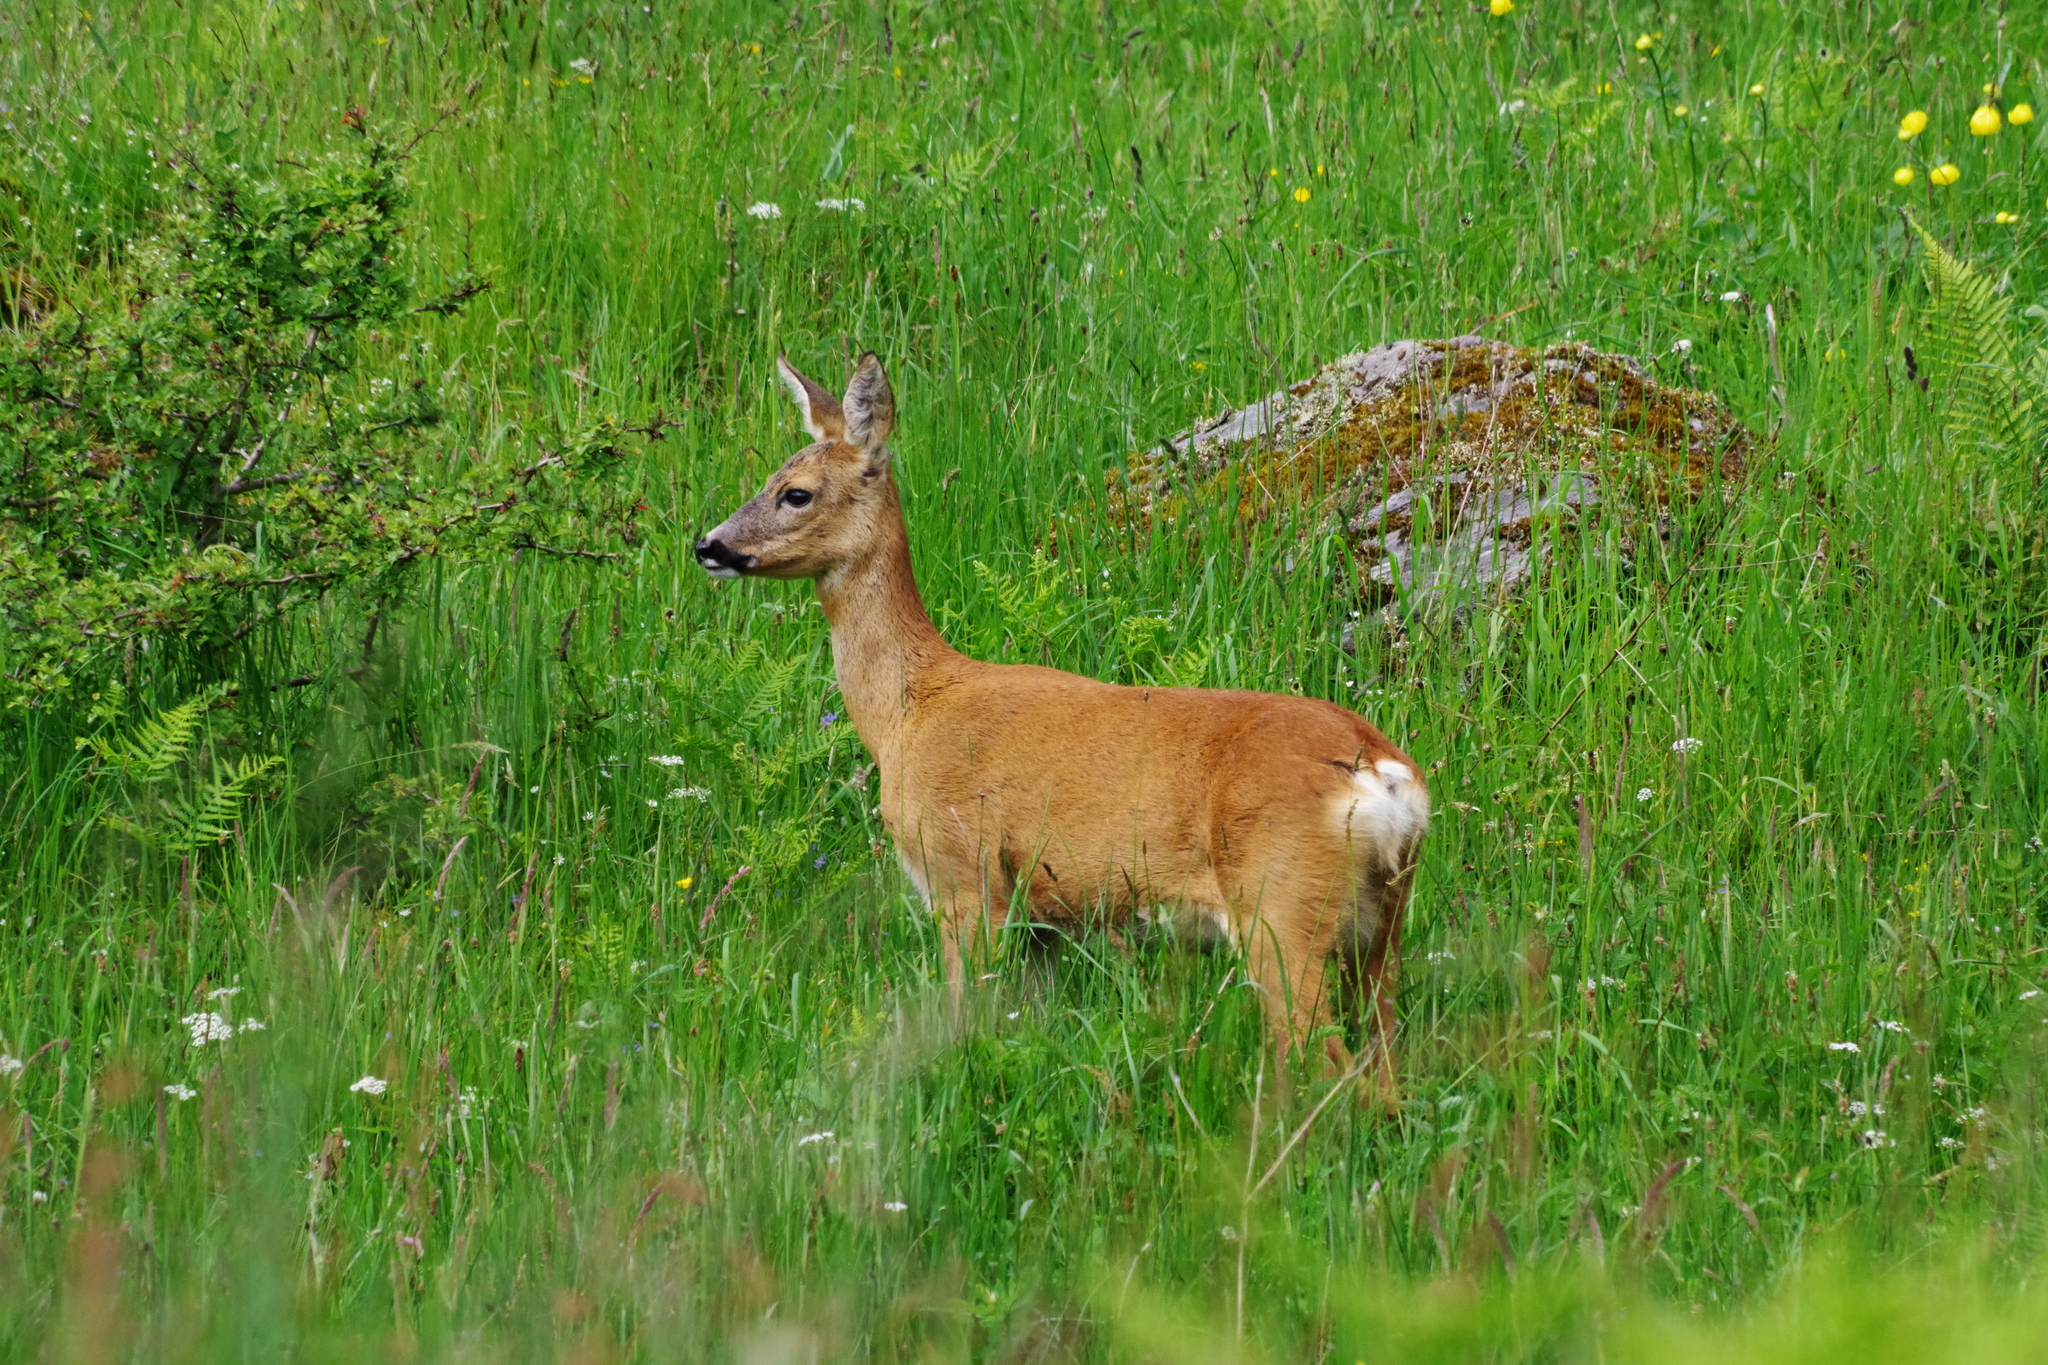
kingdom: Animalia
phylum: Chordata
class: Mammalia
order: Artiodactyla
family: Cervidae
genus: Capreolus
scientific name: Capreolus capreolus
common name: Western roe deer
